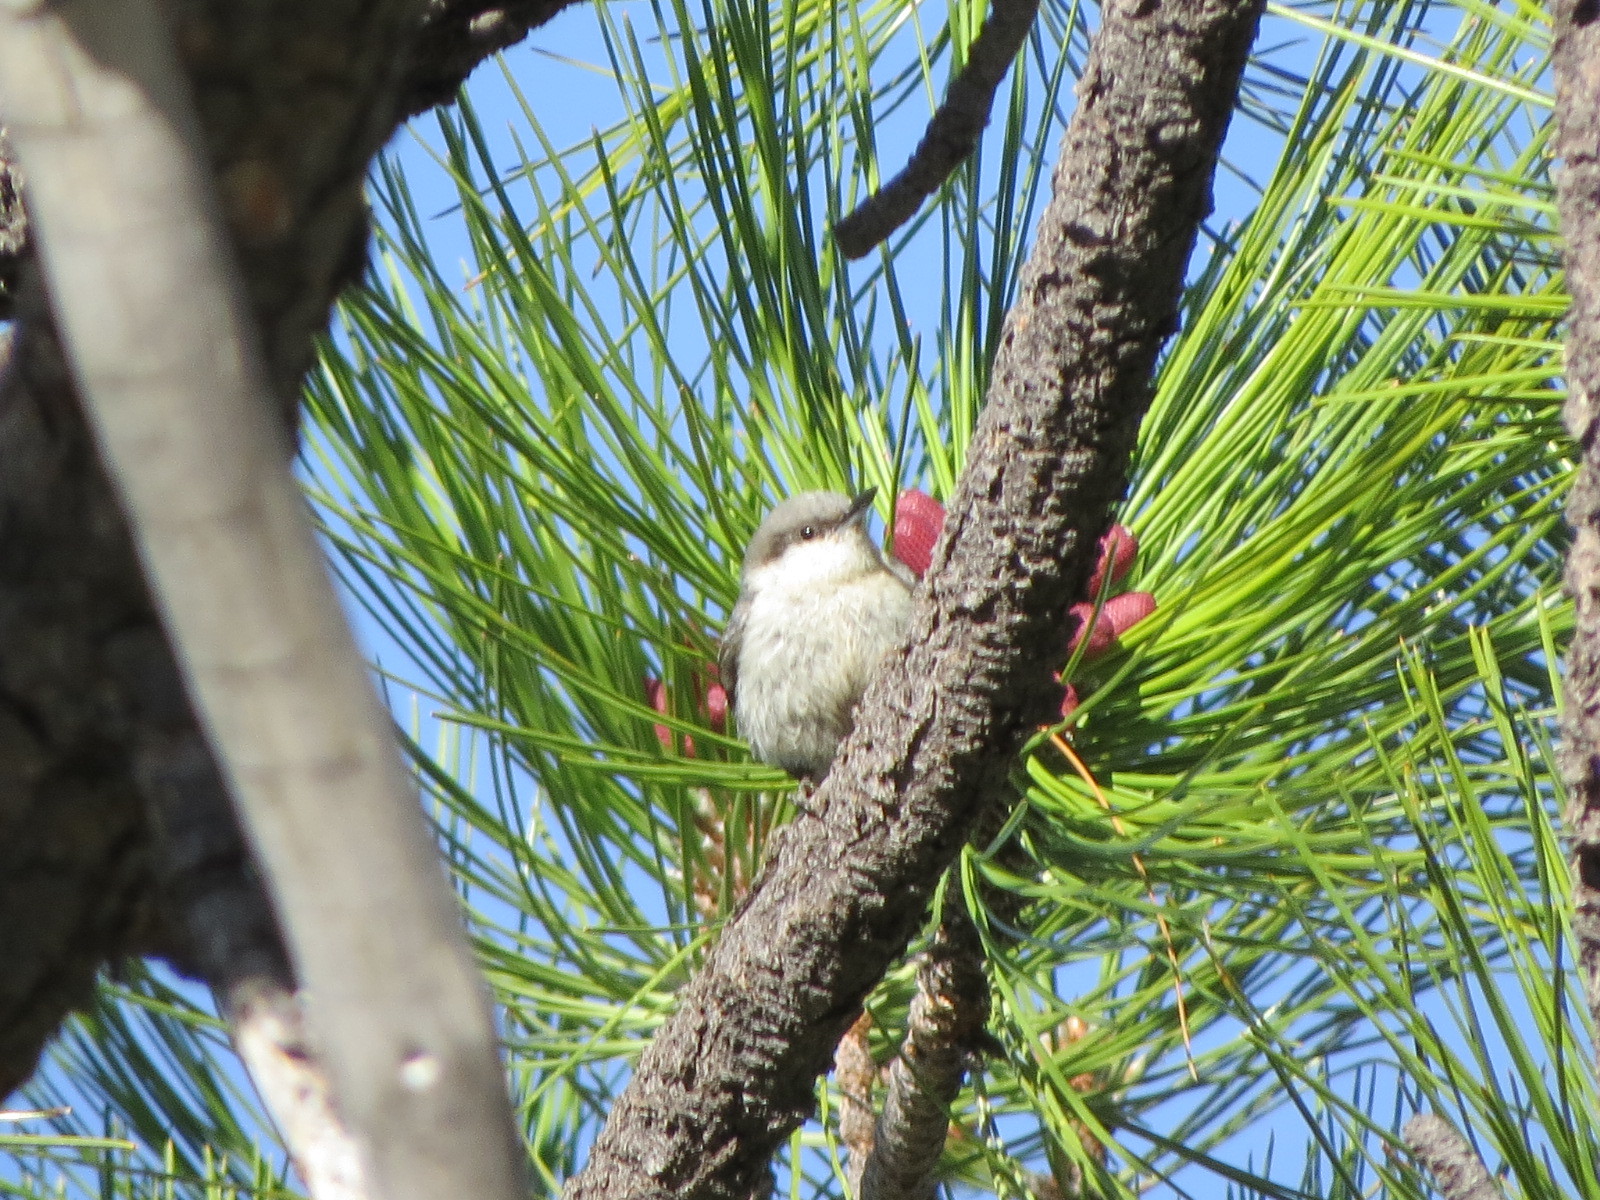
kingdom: Animalia
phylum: Chordata
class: Aves
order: Passeriformes
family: Sittidae
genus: Sitta
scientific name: Sitta pygmaea
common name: Pygmy nuthatch
